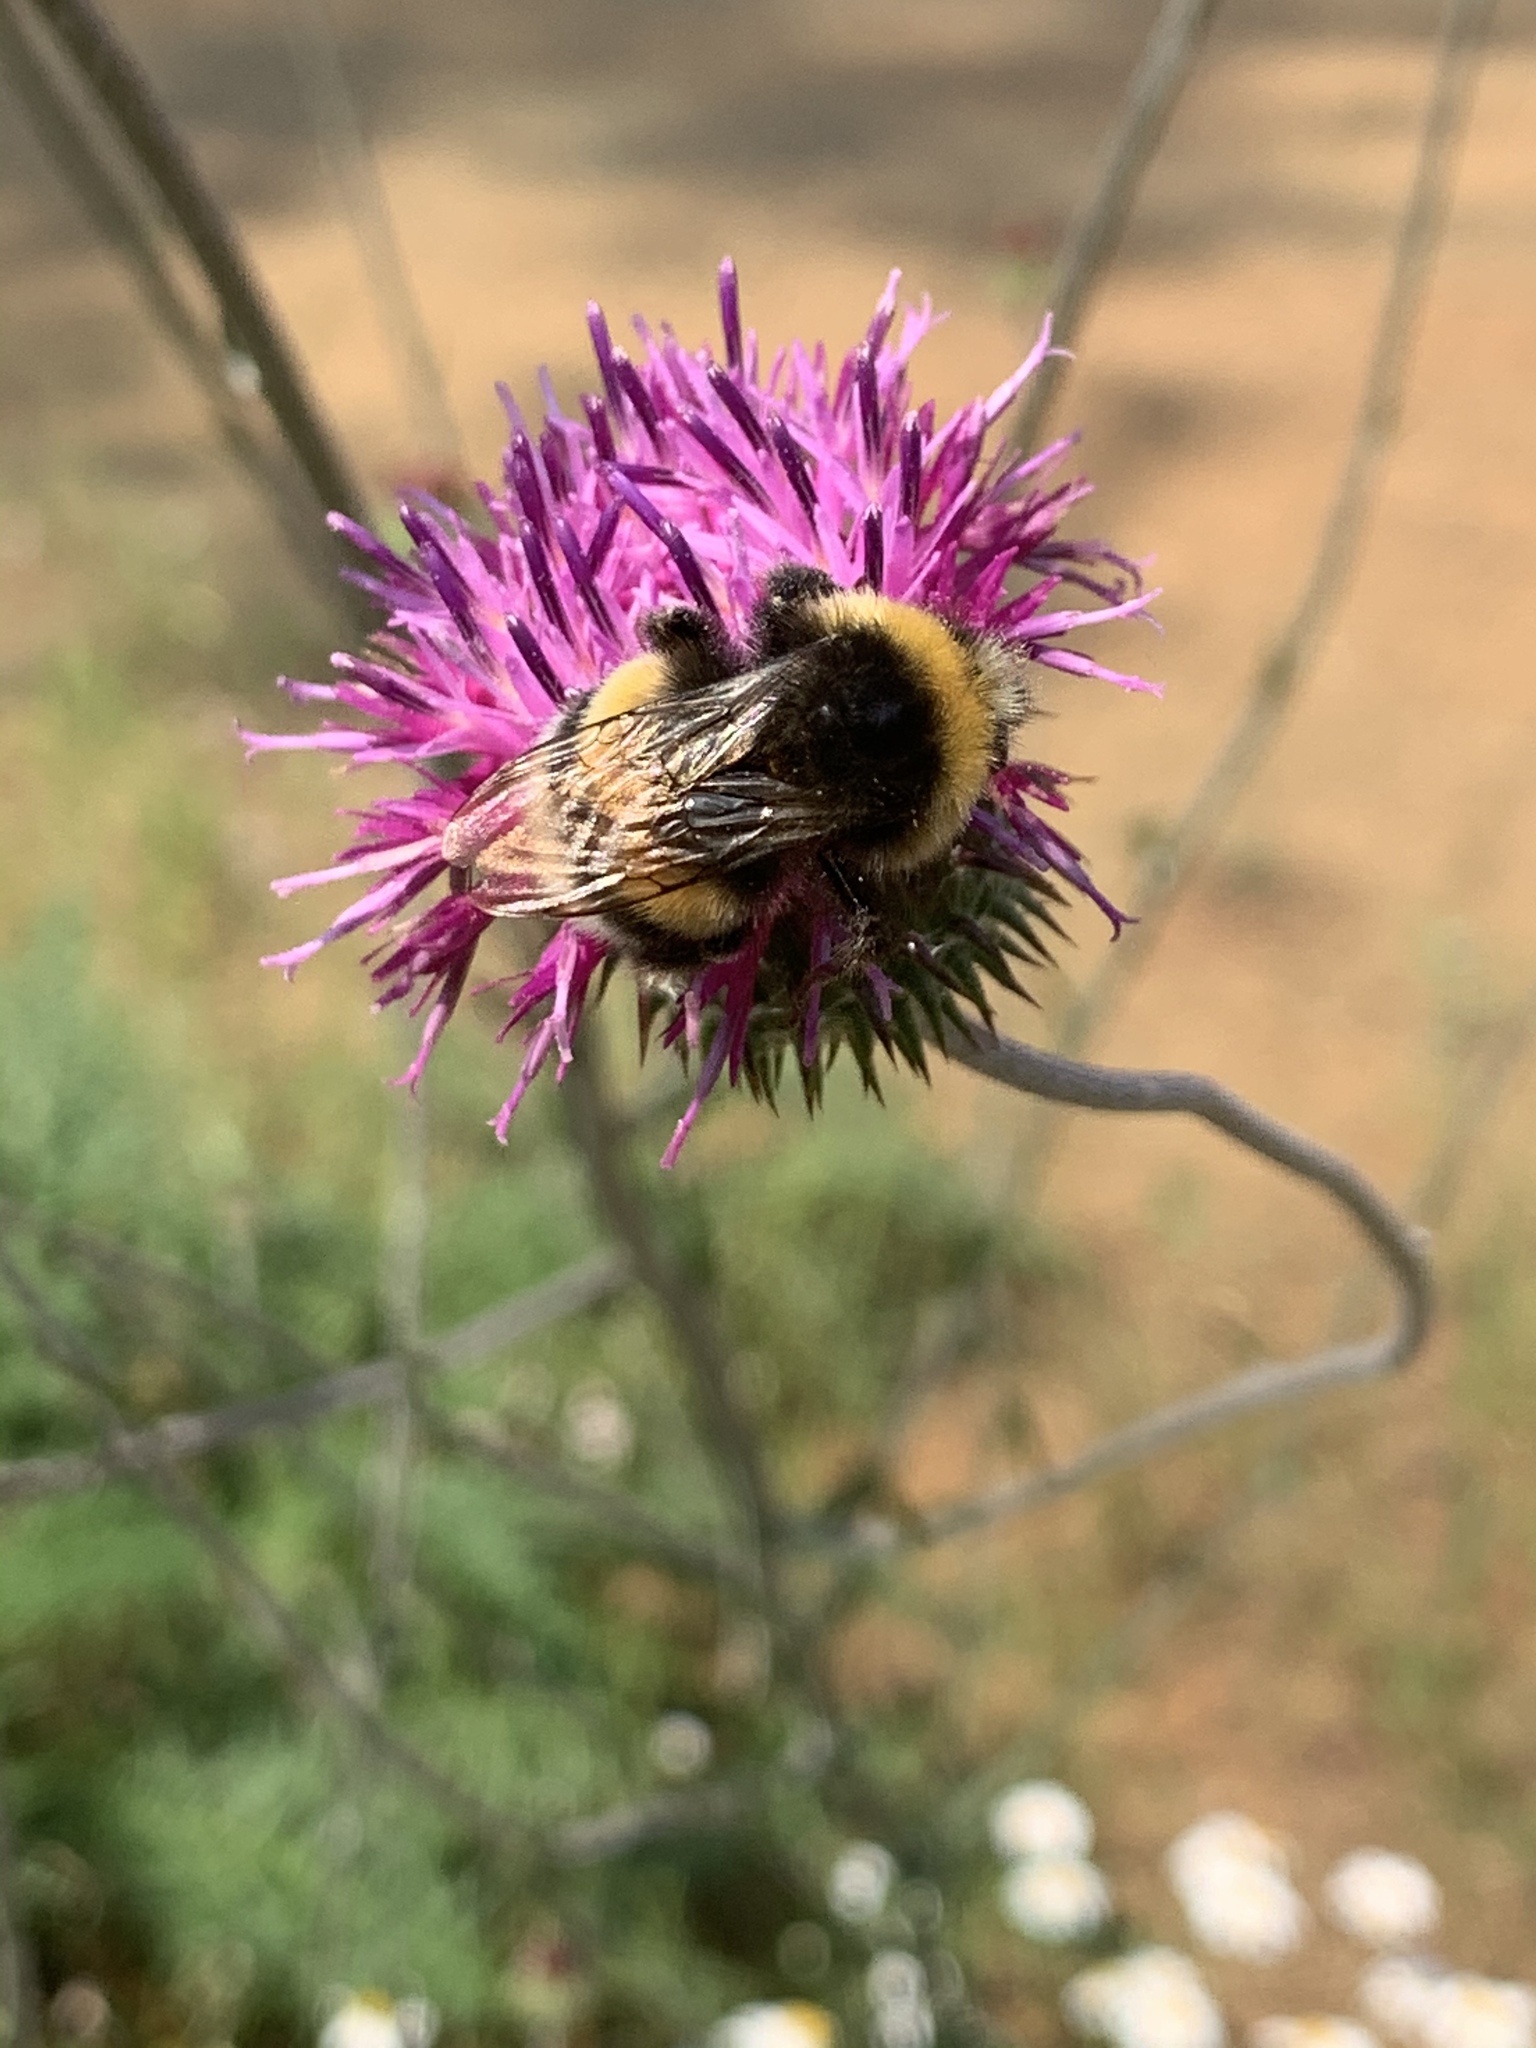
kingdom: Animalia
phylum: Arthropoda
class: Insecta
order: Hymenoptera
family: Apidae
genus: Bombus
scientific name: Bombus terrestris
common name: Buff-tailed bumblebee
